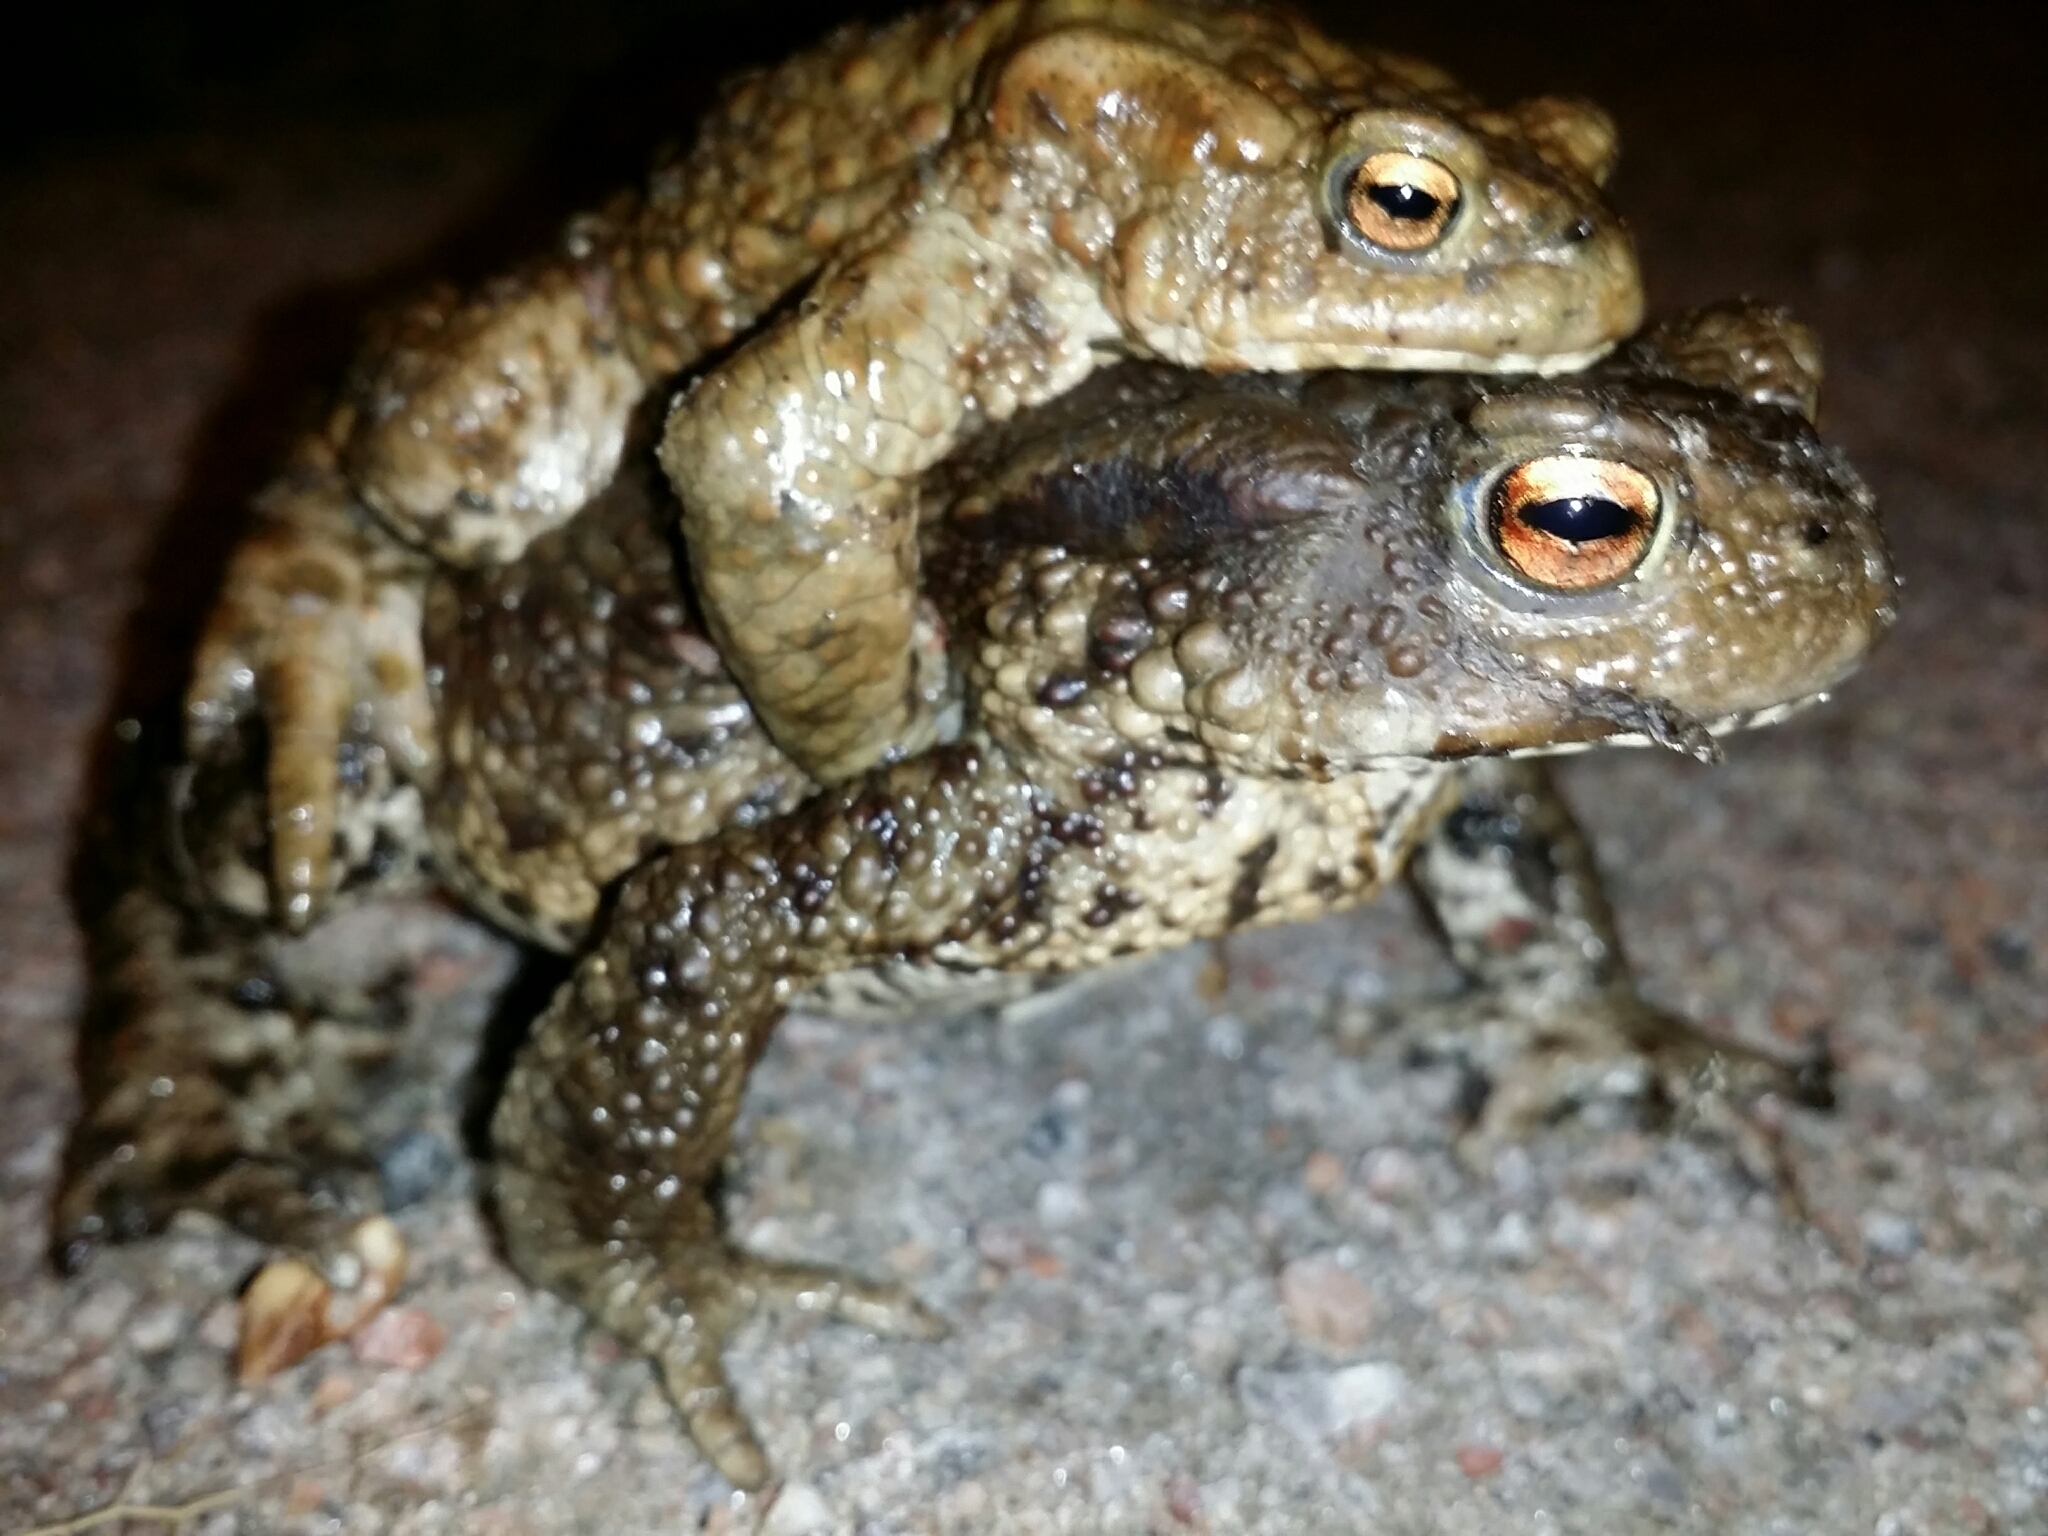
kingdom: Animalia
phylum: Chordata
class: Amphibia
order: Anura
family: Bufonidae
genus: Bufo
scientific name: Bufo bufo
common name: Common toad
